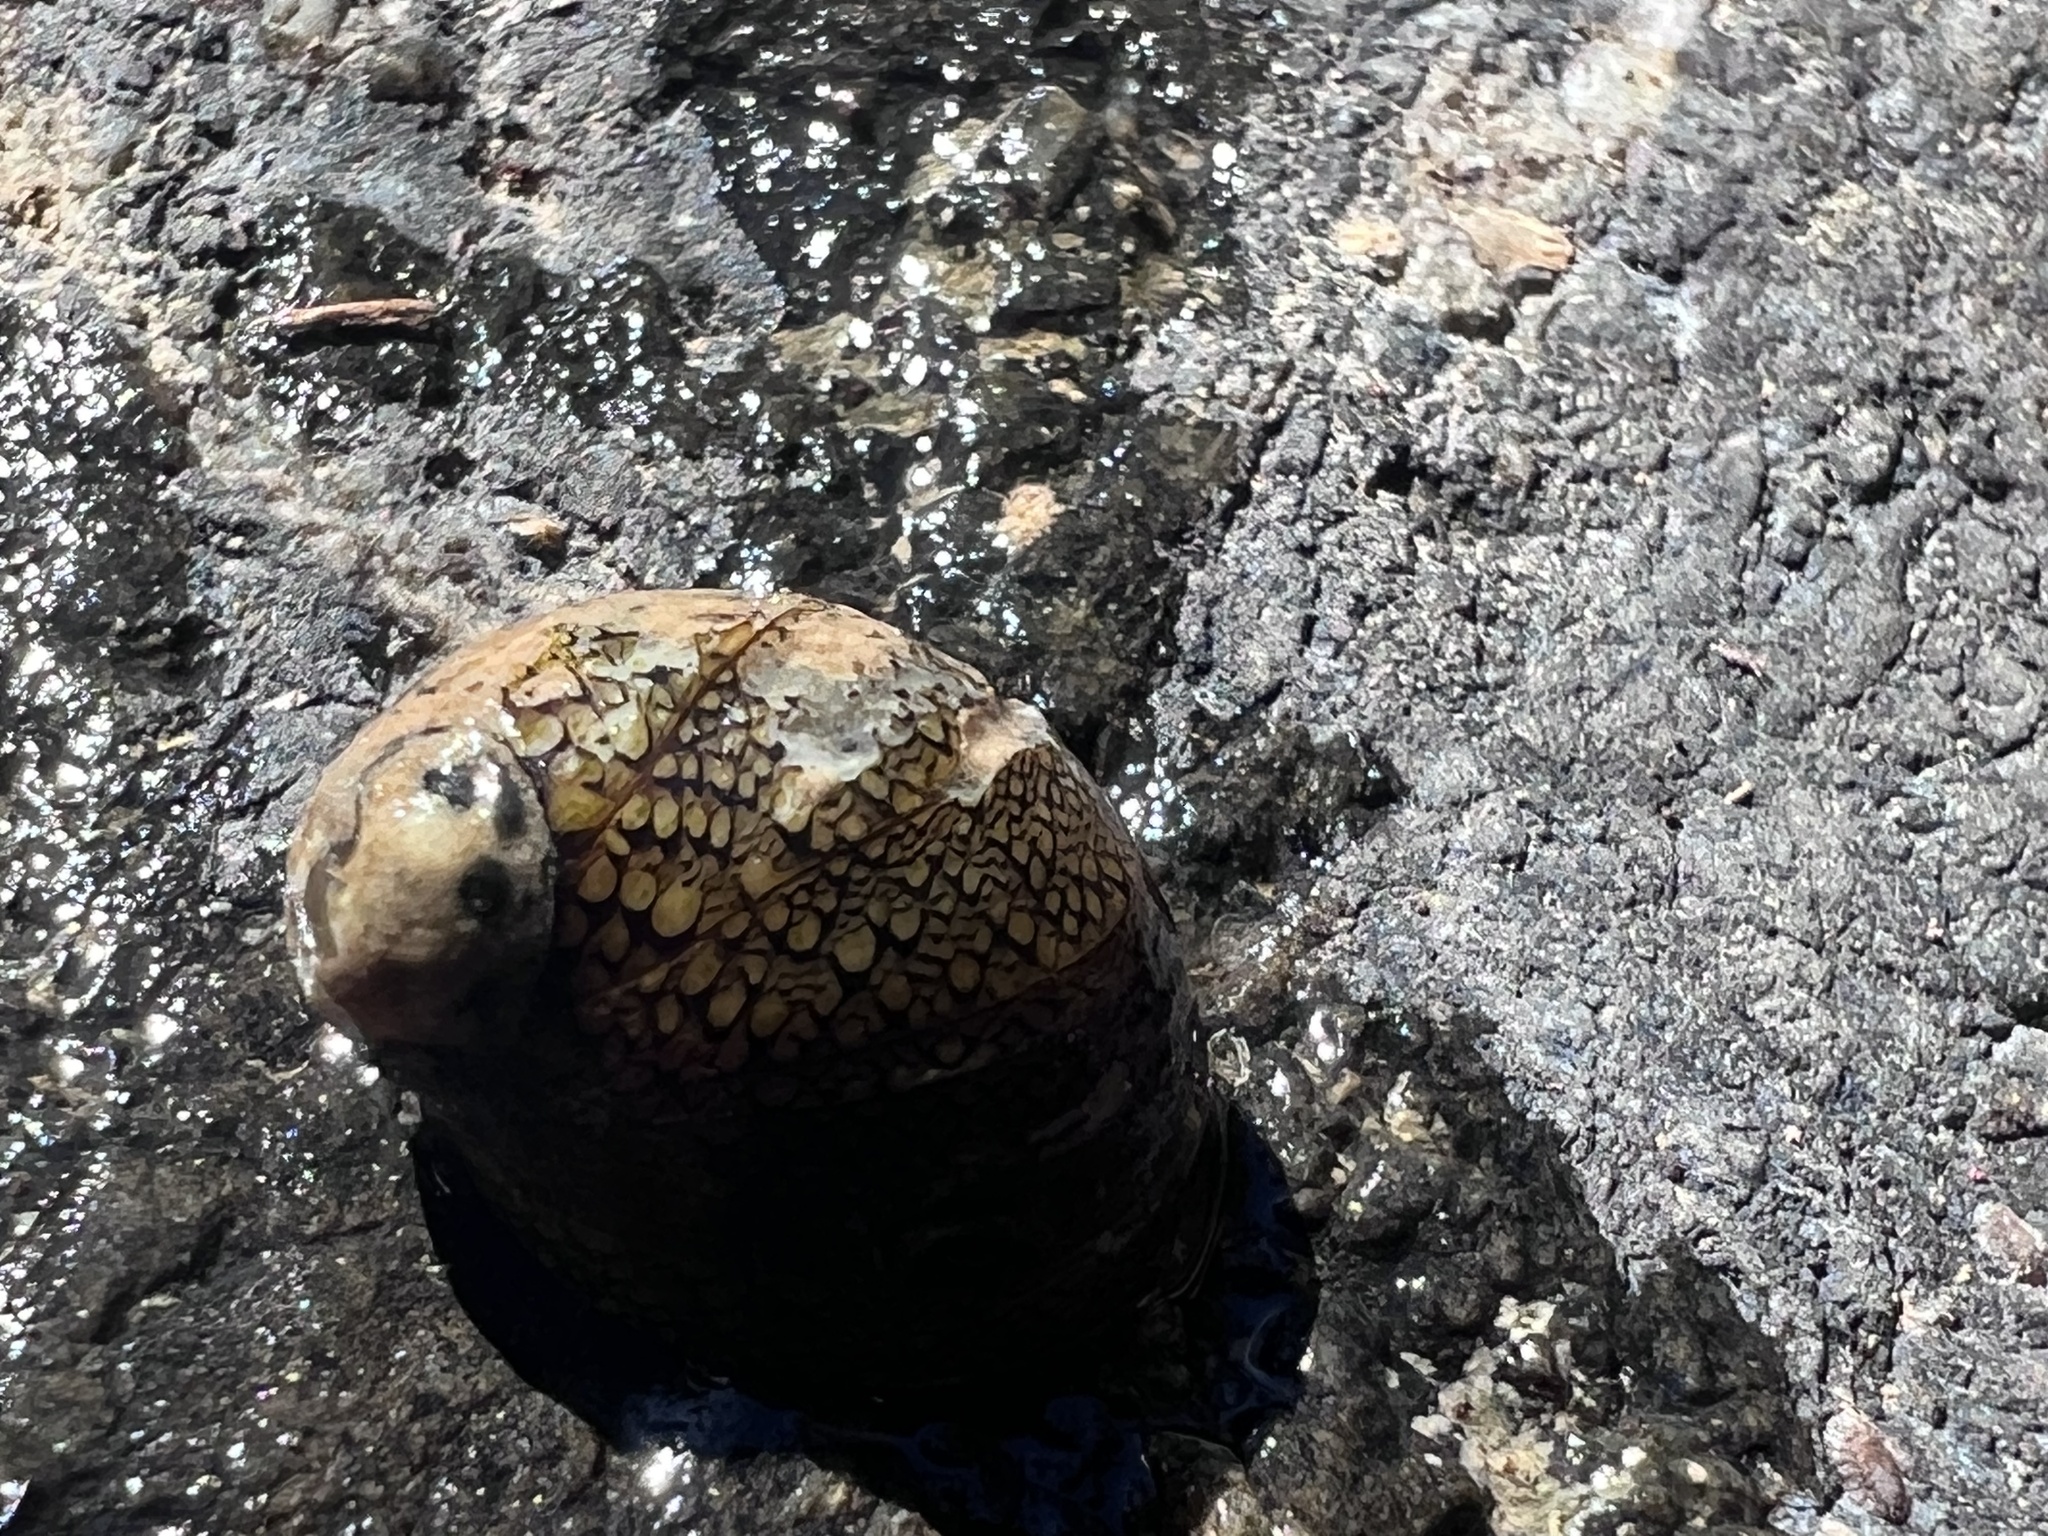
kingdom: Animalia
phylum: Mollusca
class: Gastropoda
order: Cycloneritida
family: Neritidae
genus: Vitta
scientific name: Vitta luteofasciata
